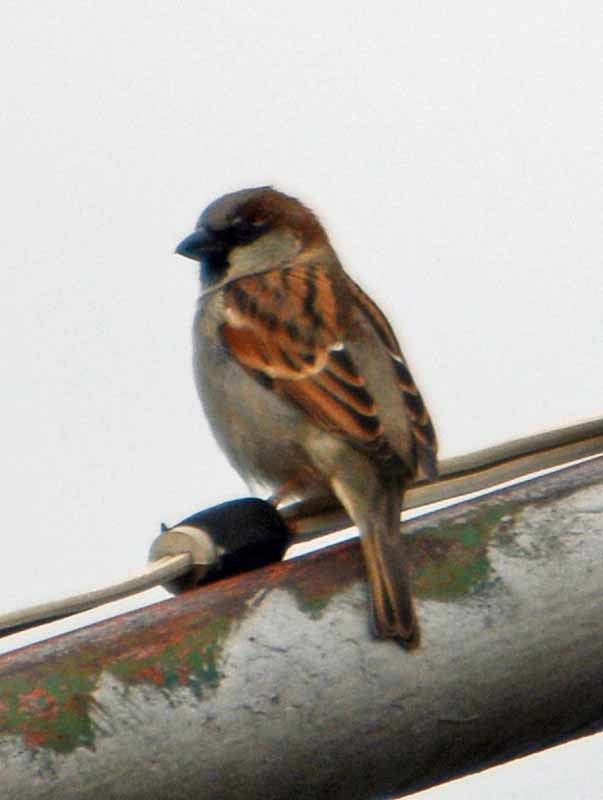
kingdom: Animalia
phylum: Chordata
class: Aves
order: Passeriformes
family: Passeridae
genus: Passer
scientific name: Passer domesticus
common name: House sparrow
